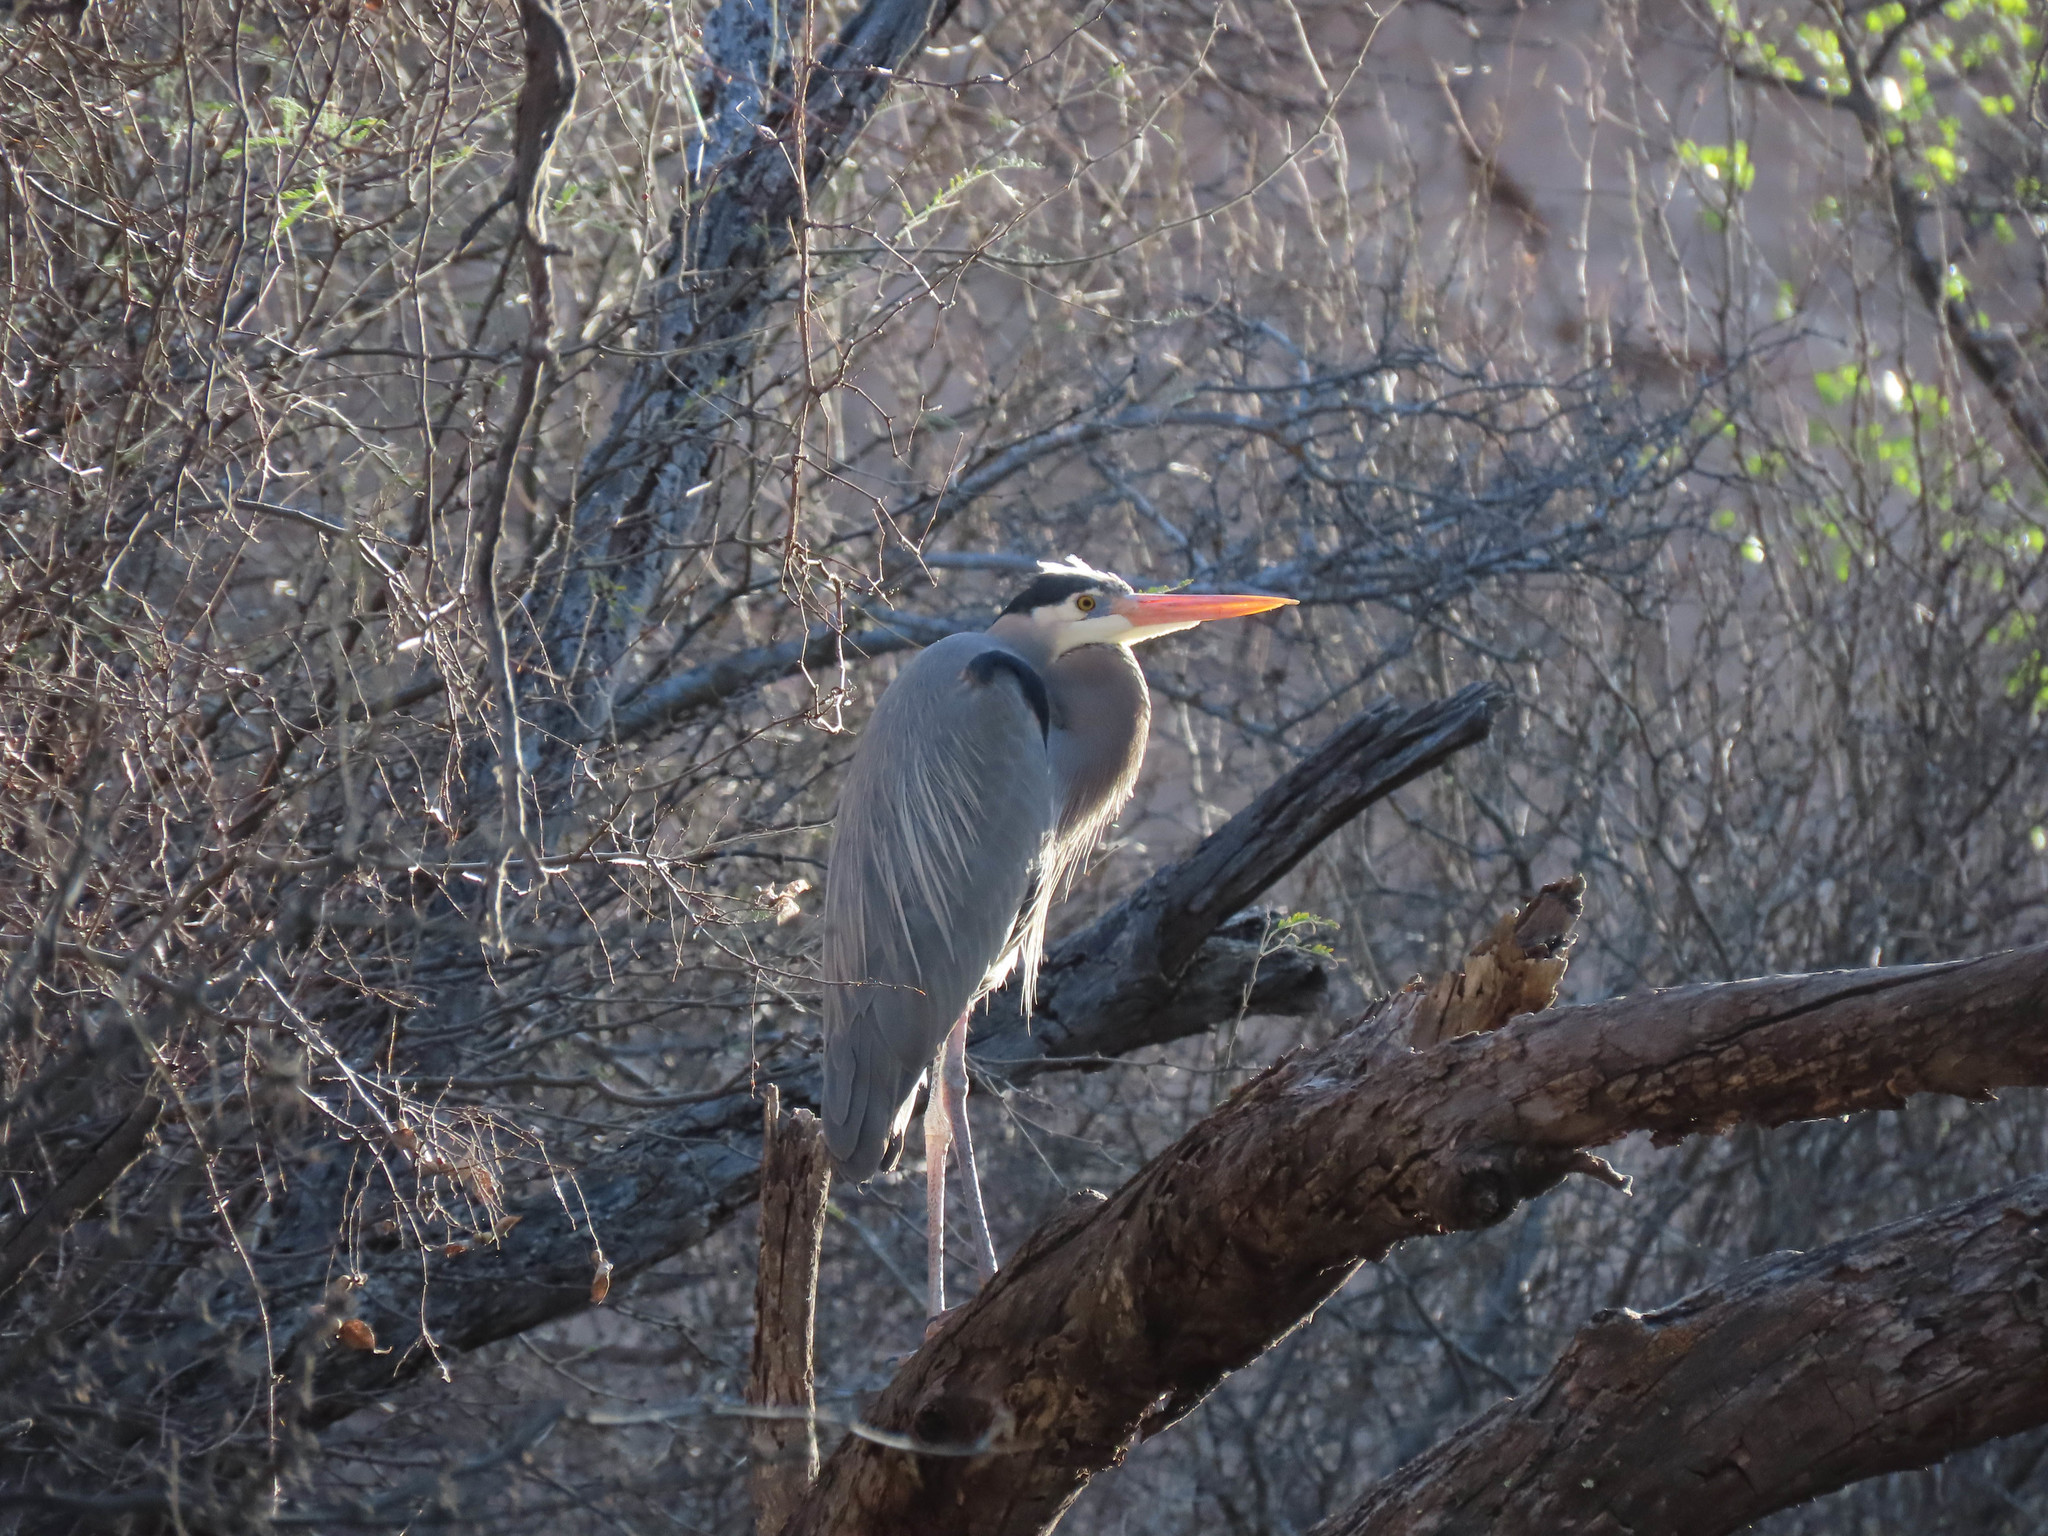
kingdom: Animalia
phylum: Chordata
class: Aves
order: Pelecaniformes
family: Ardeidae
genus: Ardea
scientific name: Ardea herodias
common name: Great blue heron
